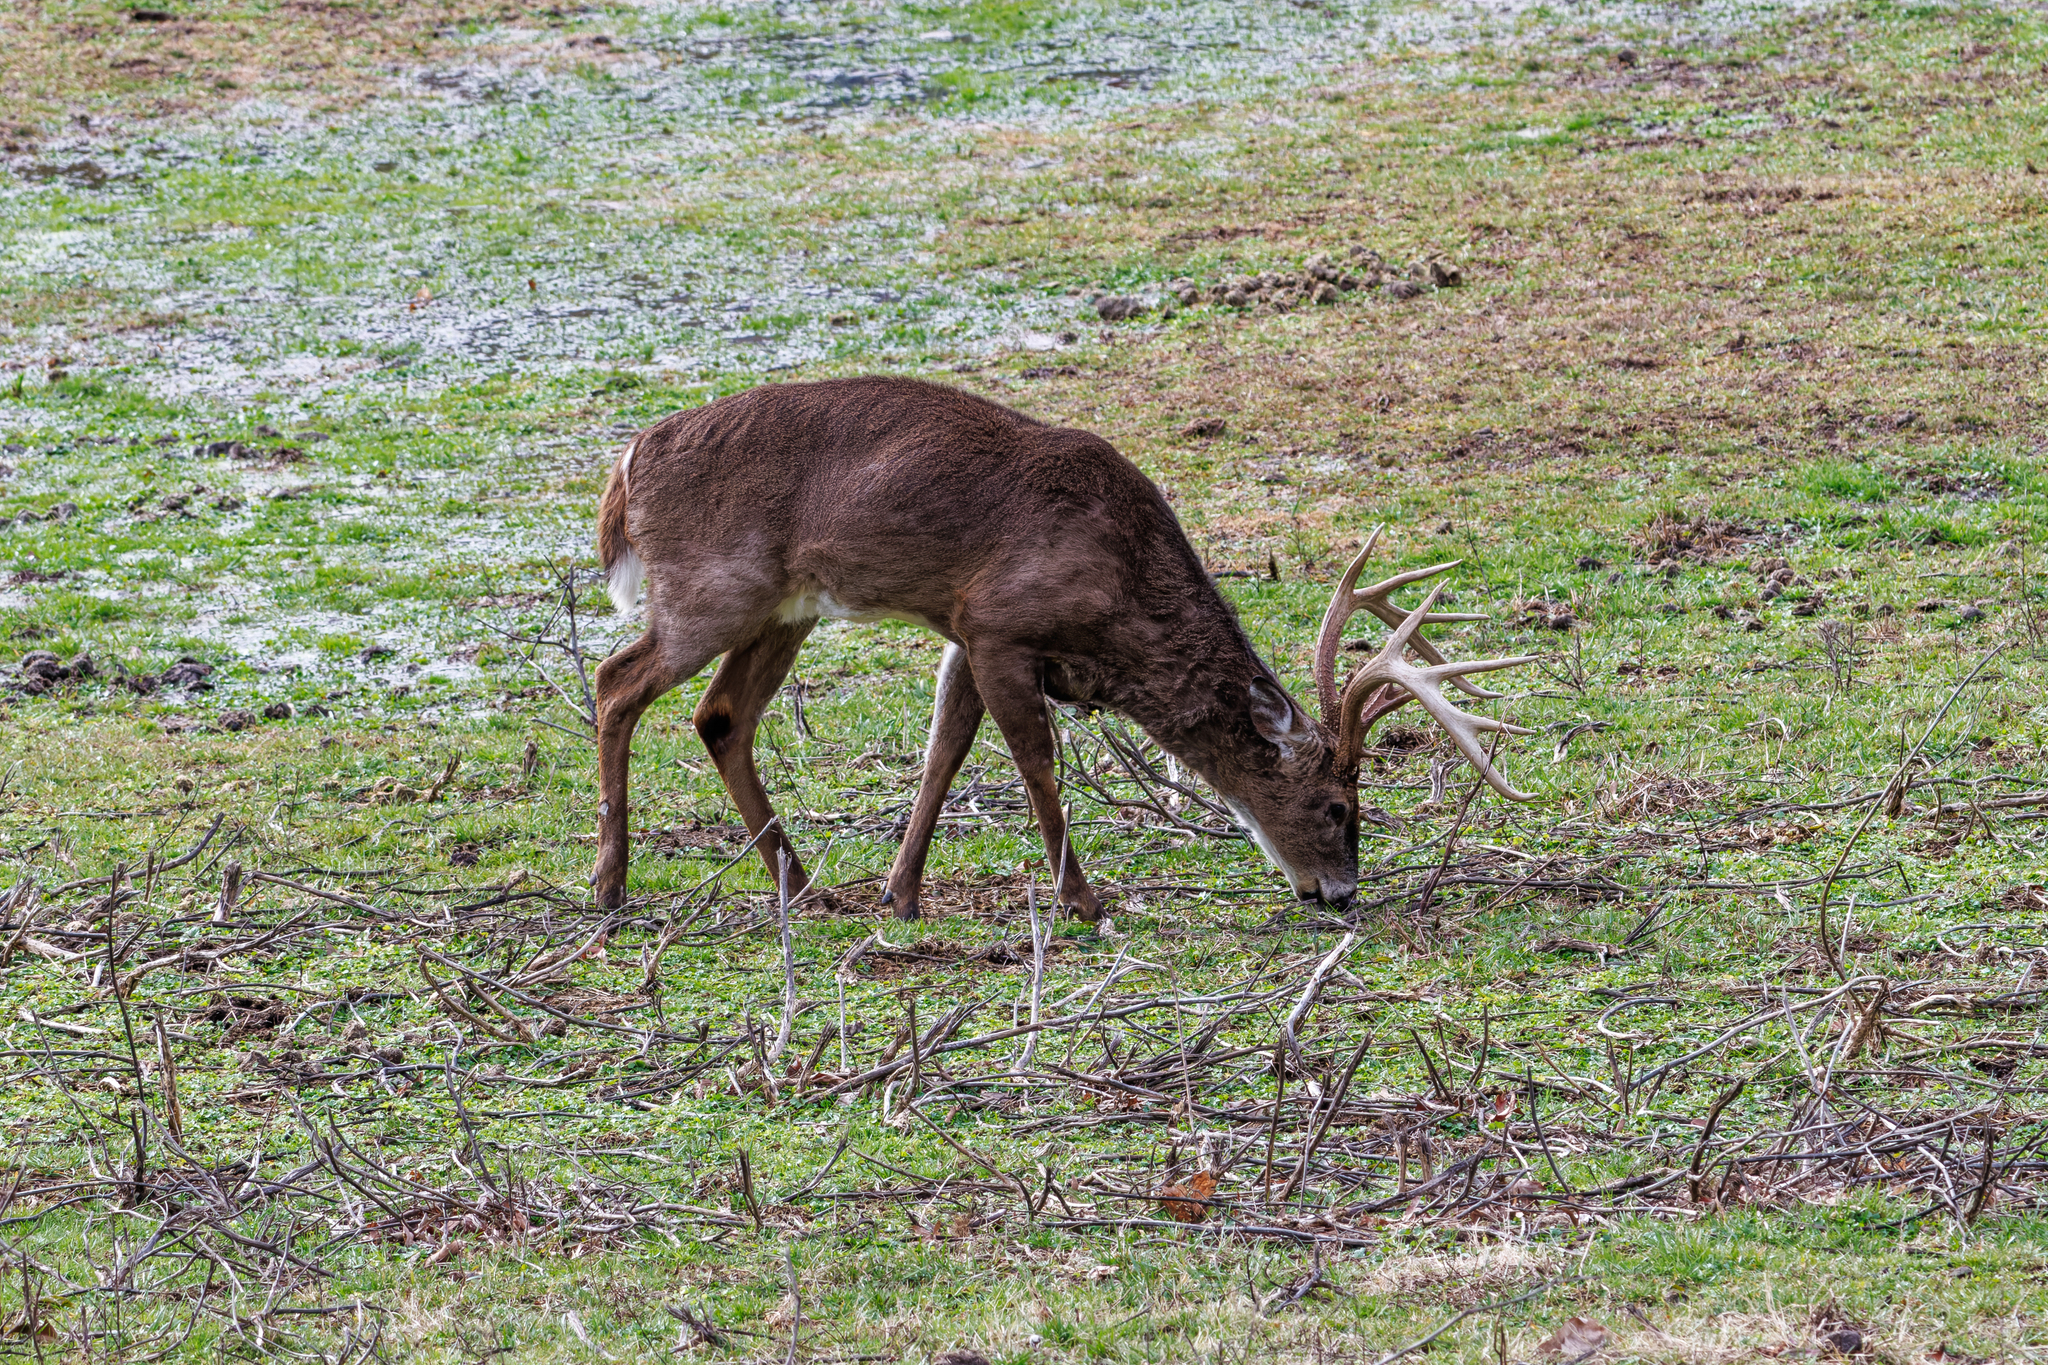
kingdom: Animalia
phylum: Chordata
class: Mammalia
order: Artiodactyla
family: Cervidae
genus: Odocoileus
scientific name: Odocoileus virginianus
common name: White-tailed deer
